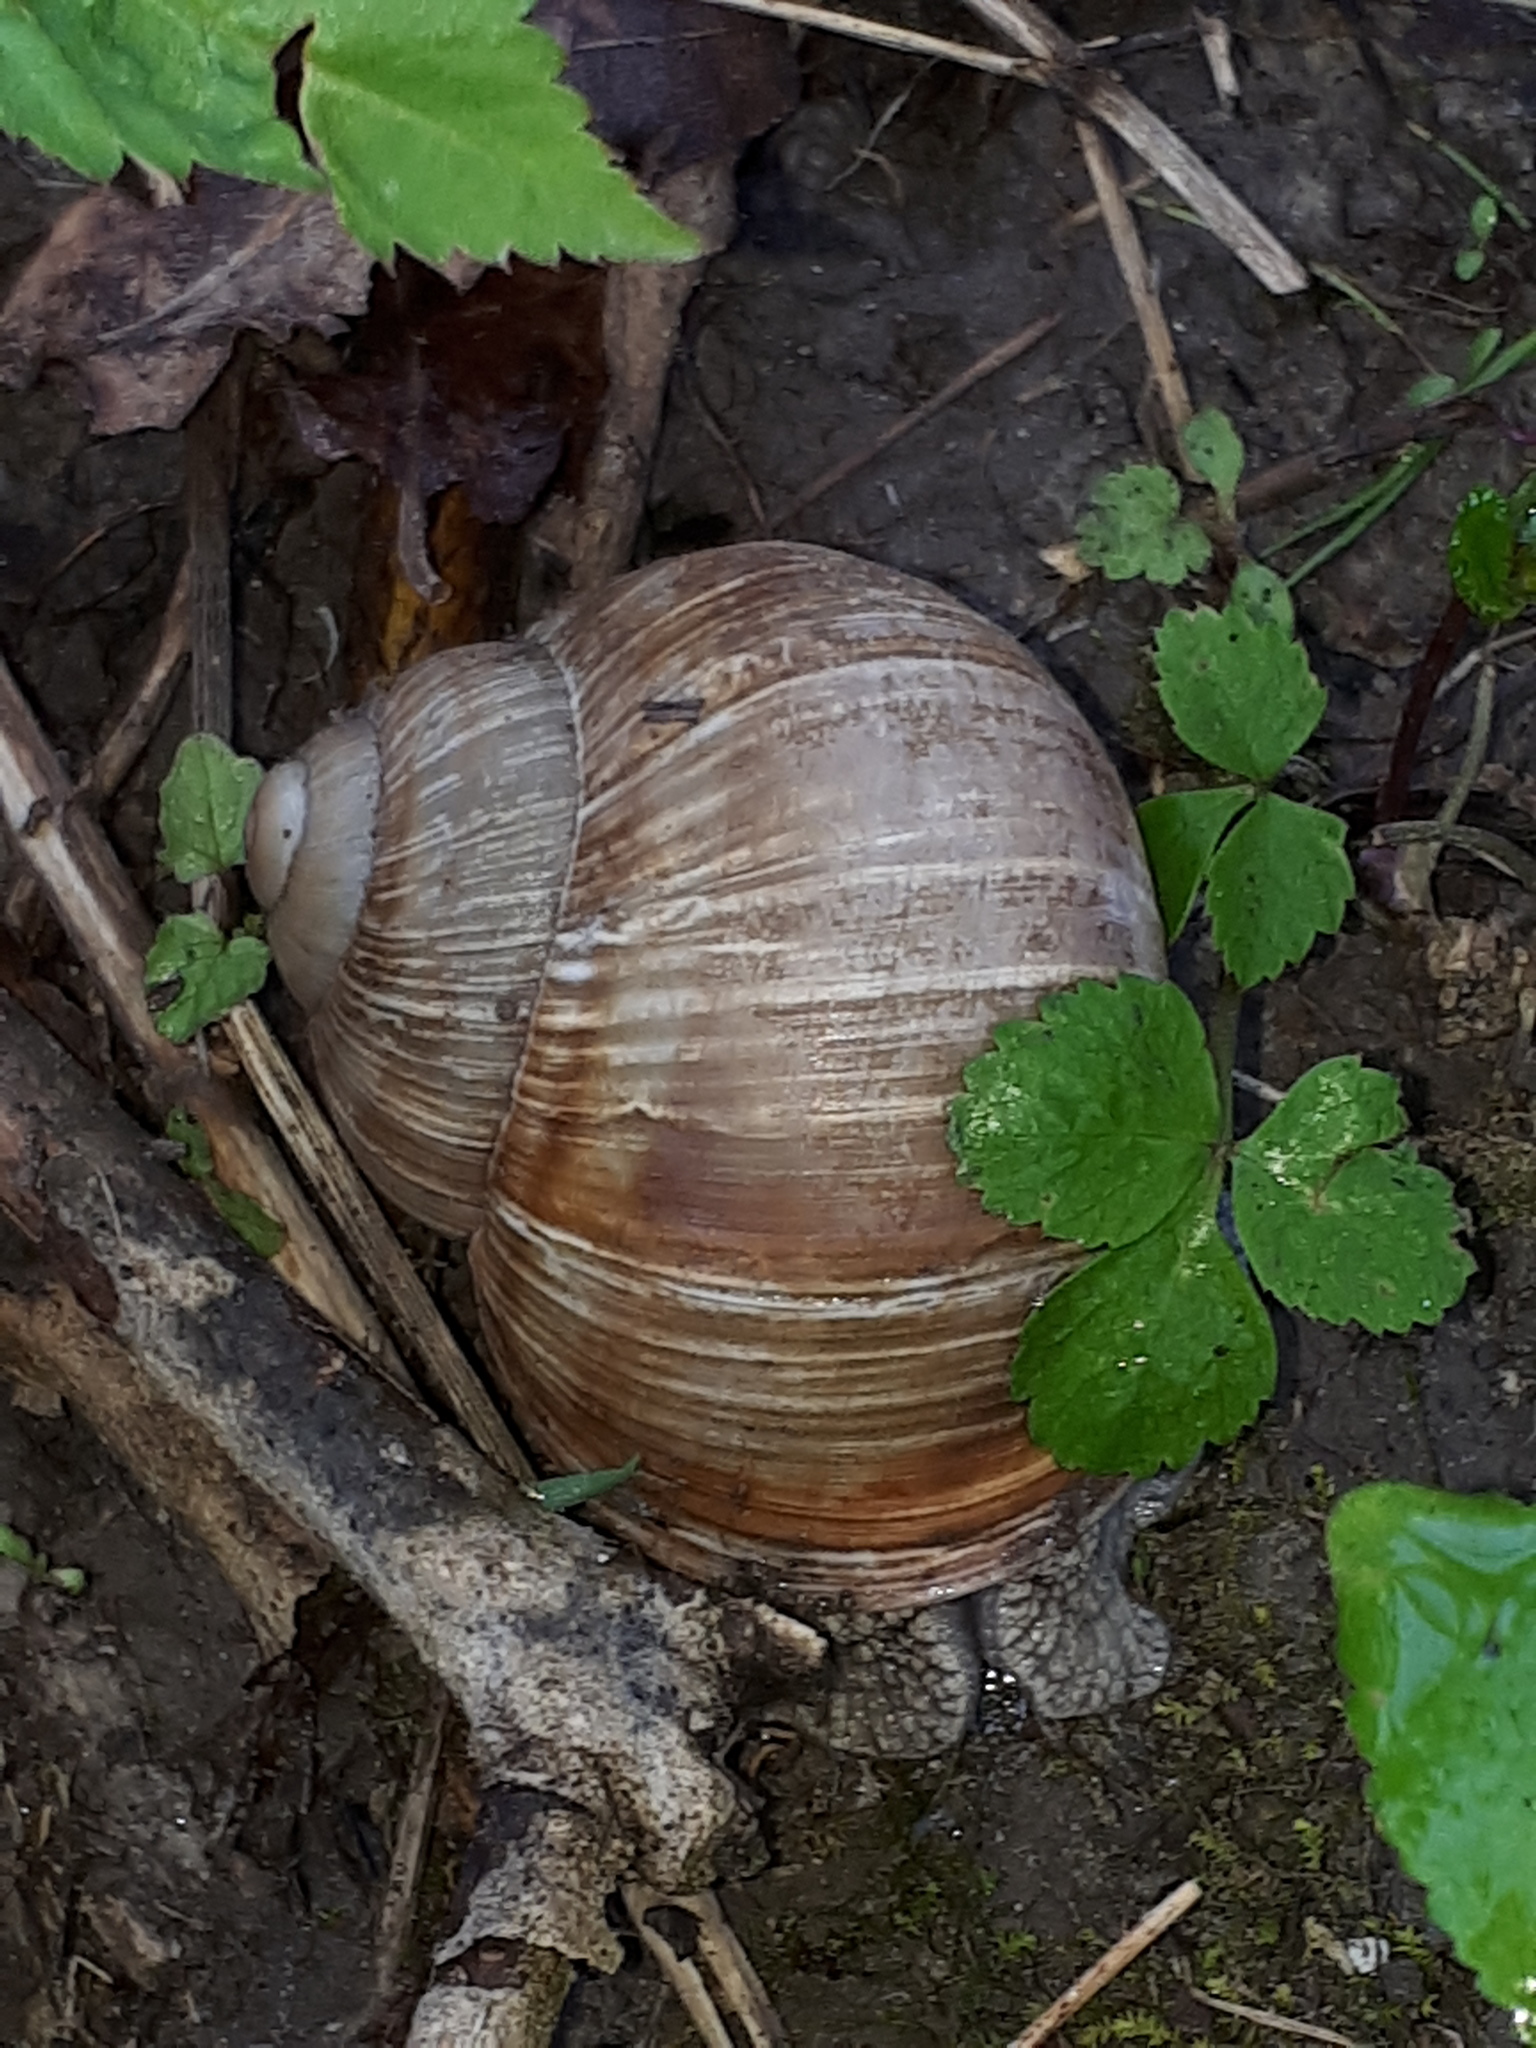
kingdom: Animalia
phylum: Mollusca
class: Gastropoda
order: Stylommatophora
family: Helicidae
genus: Helix
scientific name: Helix pomatia
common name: Roman snail
